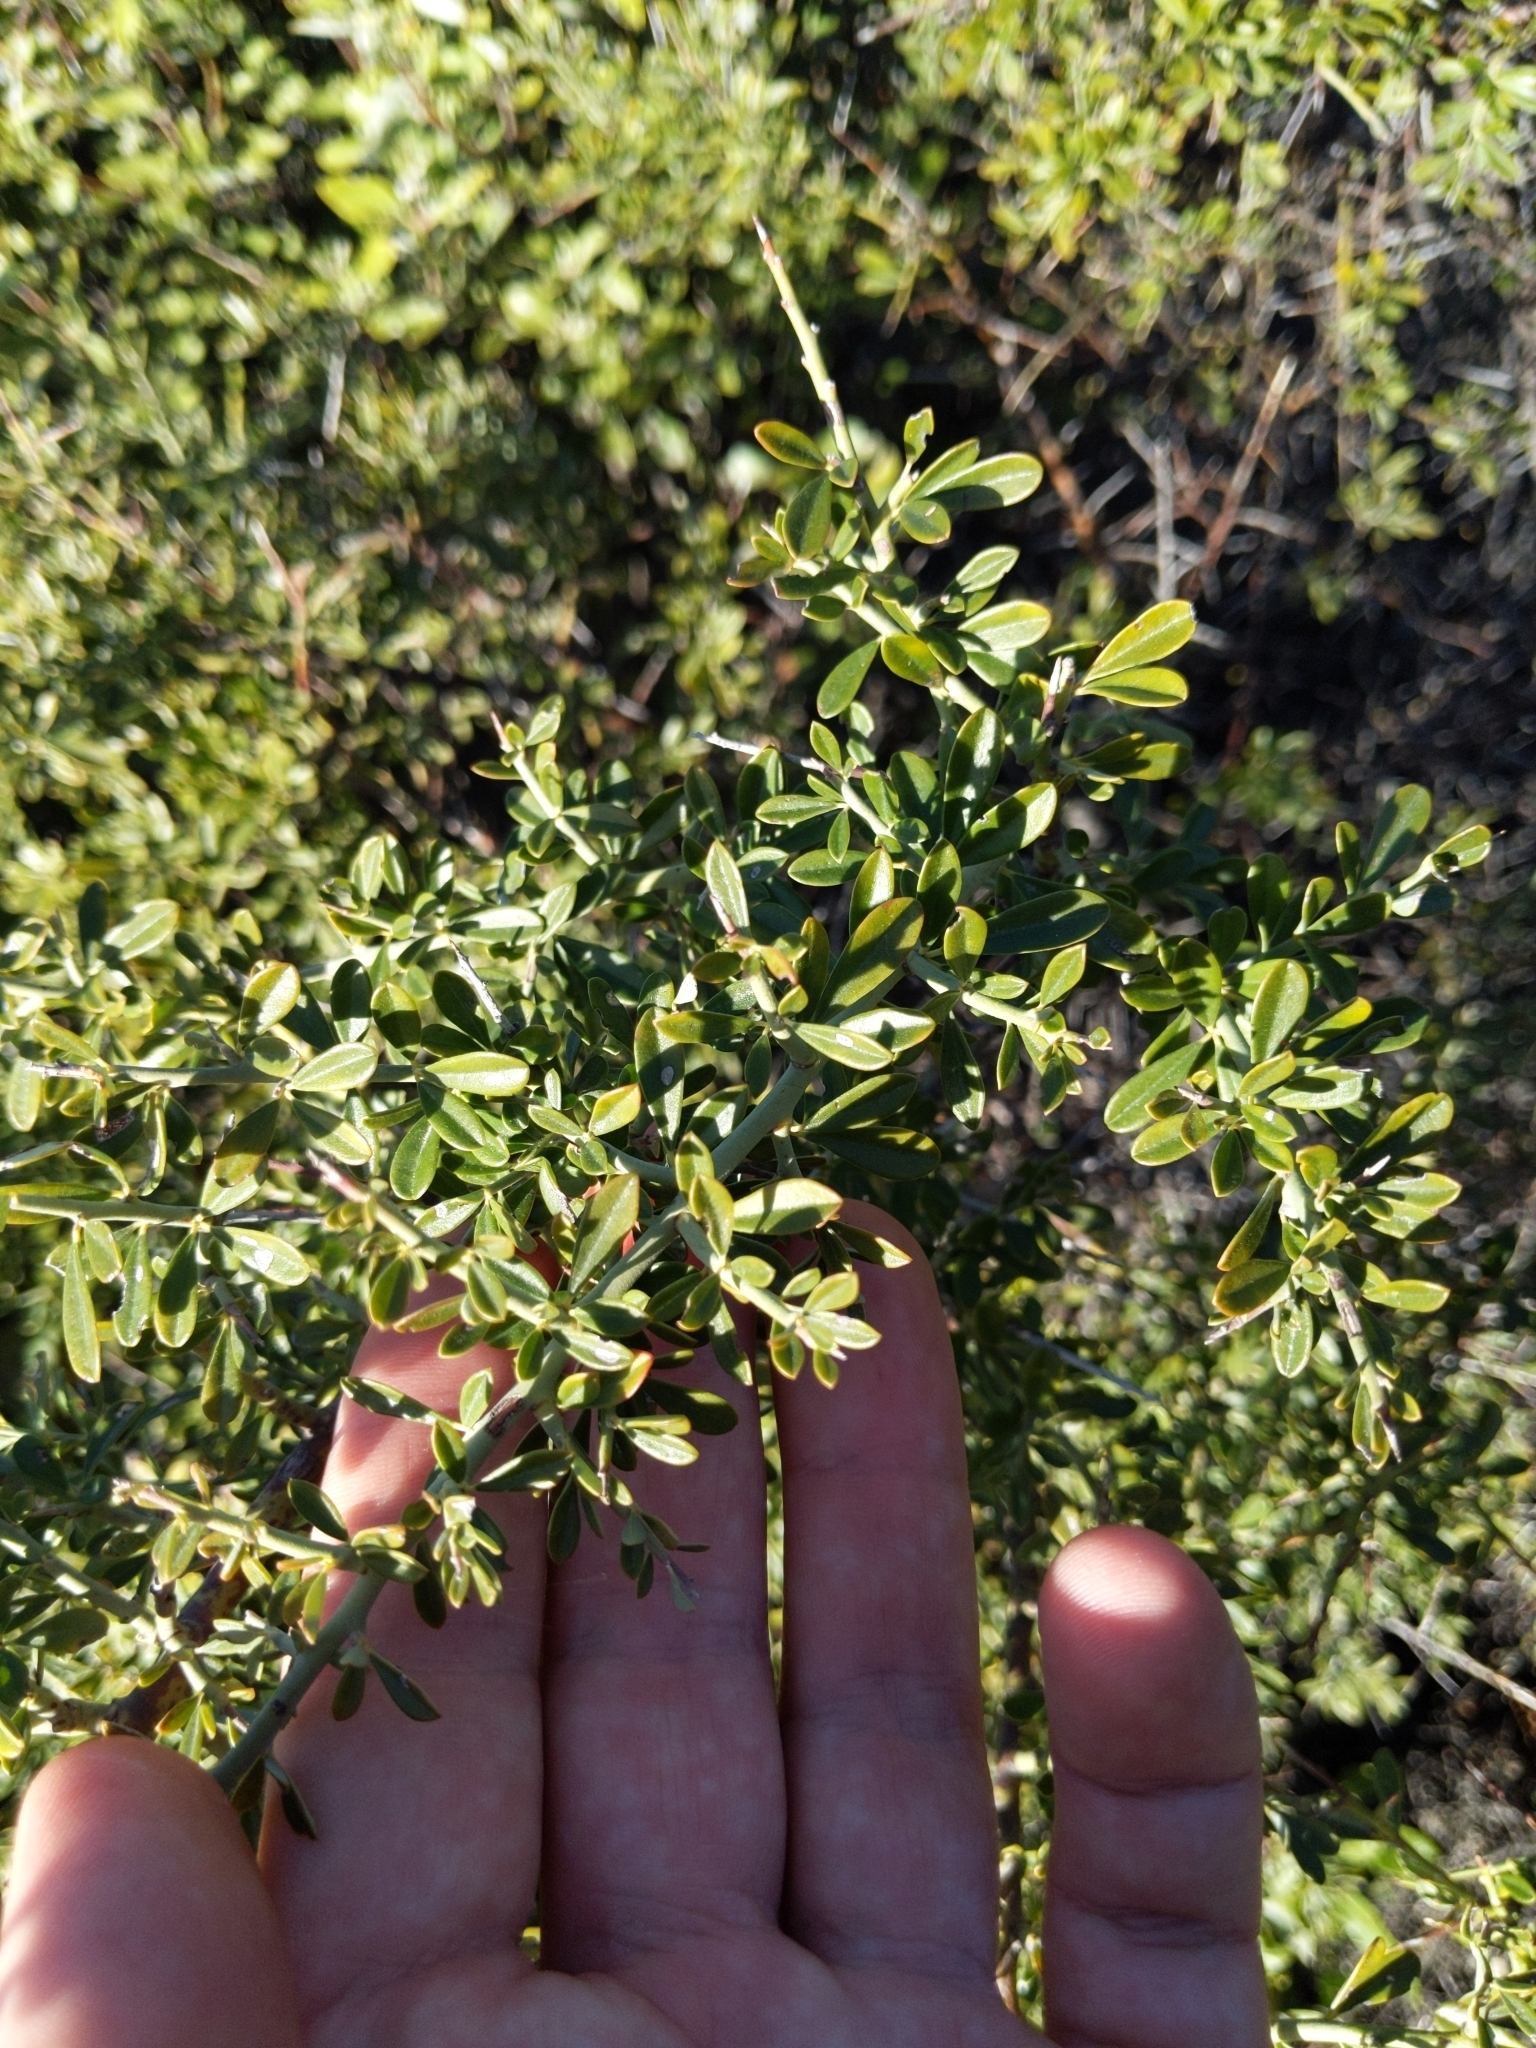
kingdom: Plantae
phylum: Tracheophyta
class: Magnoliopsida
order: Fabales
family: Fabaceae
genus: Pickeringia
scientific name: Pickeringia montana
